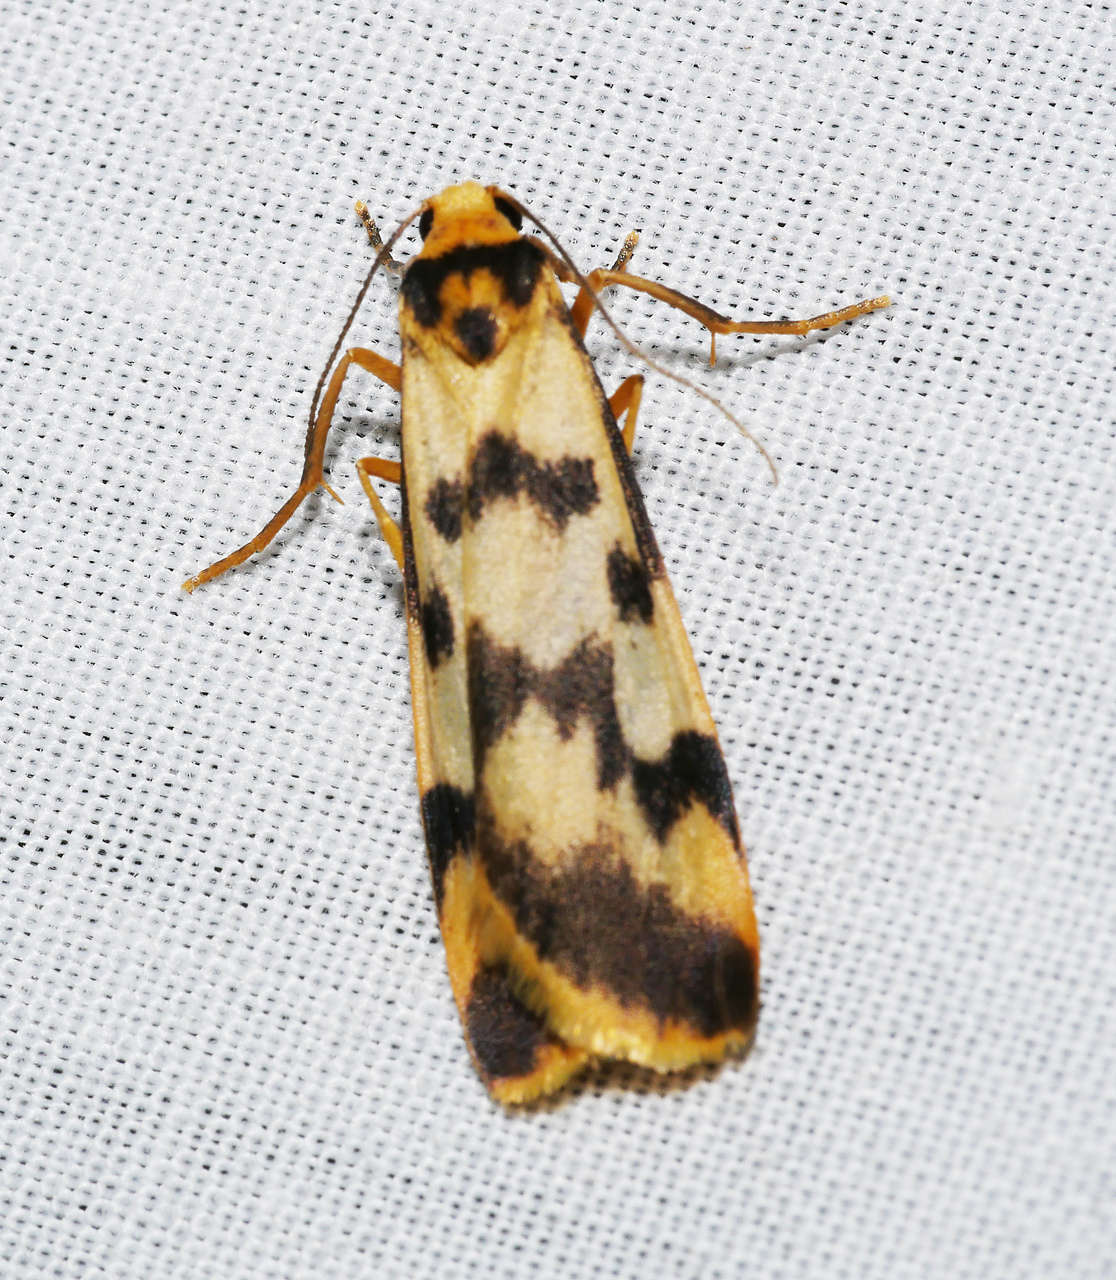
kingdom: Animalia
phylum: Arthropoda
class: Insecta
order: Lepidoptera
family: Erebidae
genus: Tigrioides
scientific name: Tigrioides alterna
